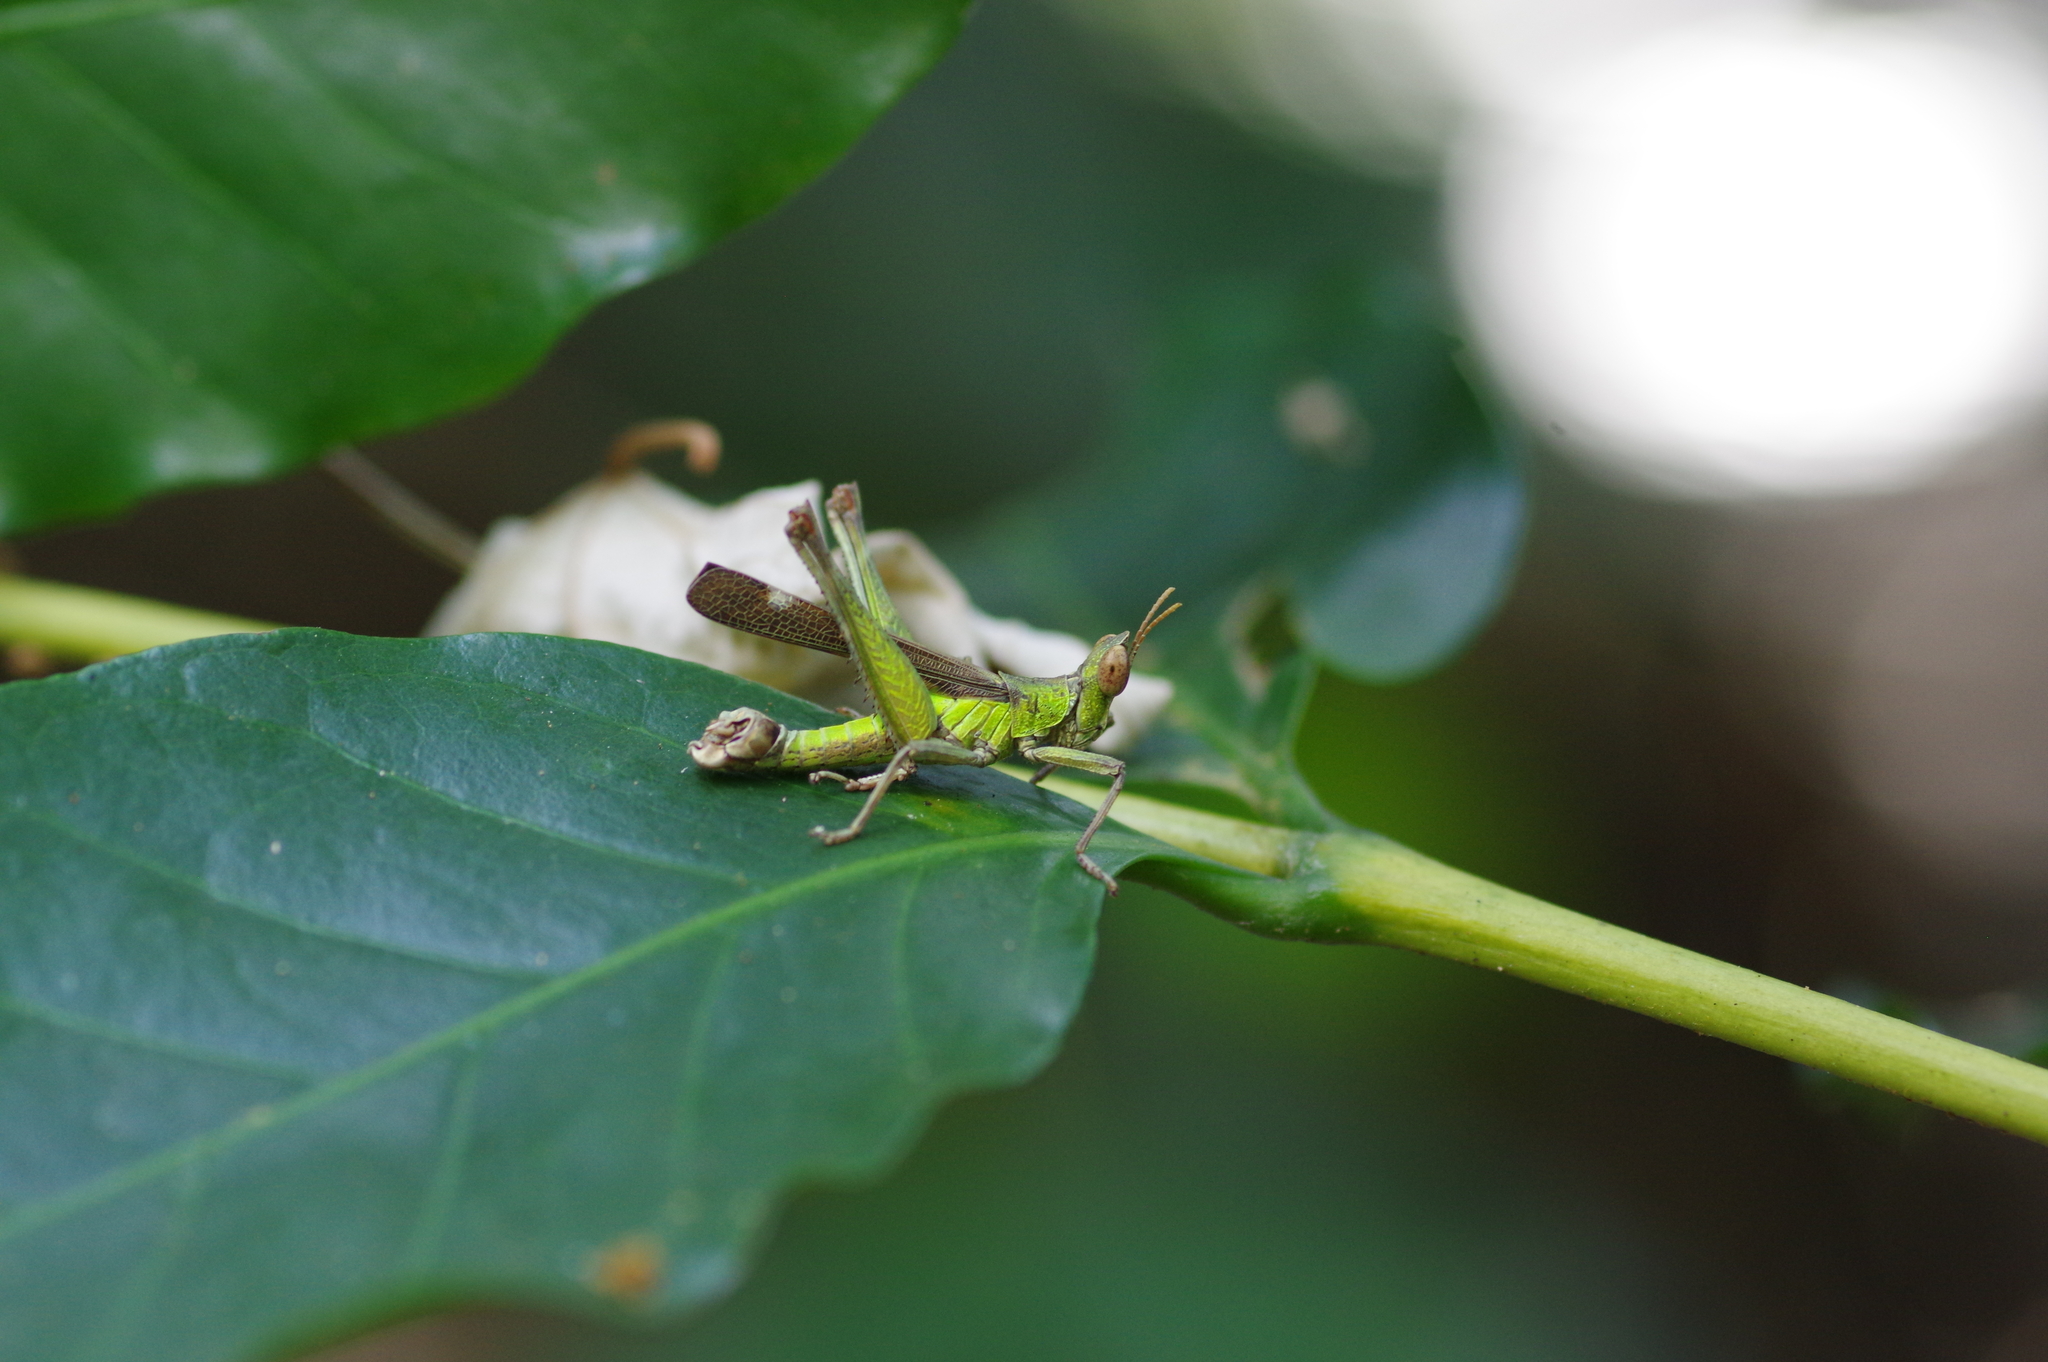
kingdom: Animalia
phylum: Arthropoda
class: Insecta
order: Orthoptera
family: Chorotypidae
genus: Erianthella
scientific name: Erianthella formosana
